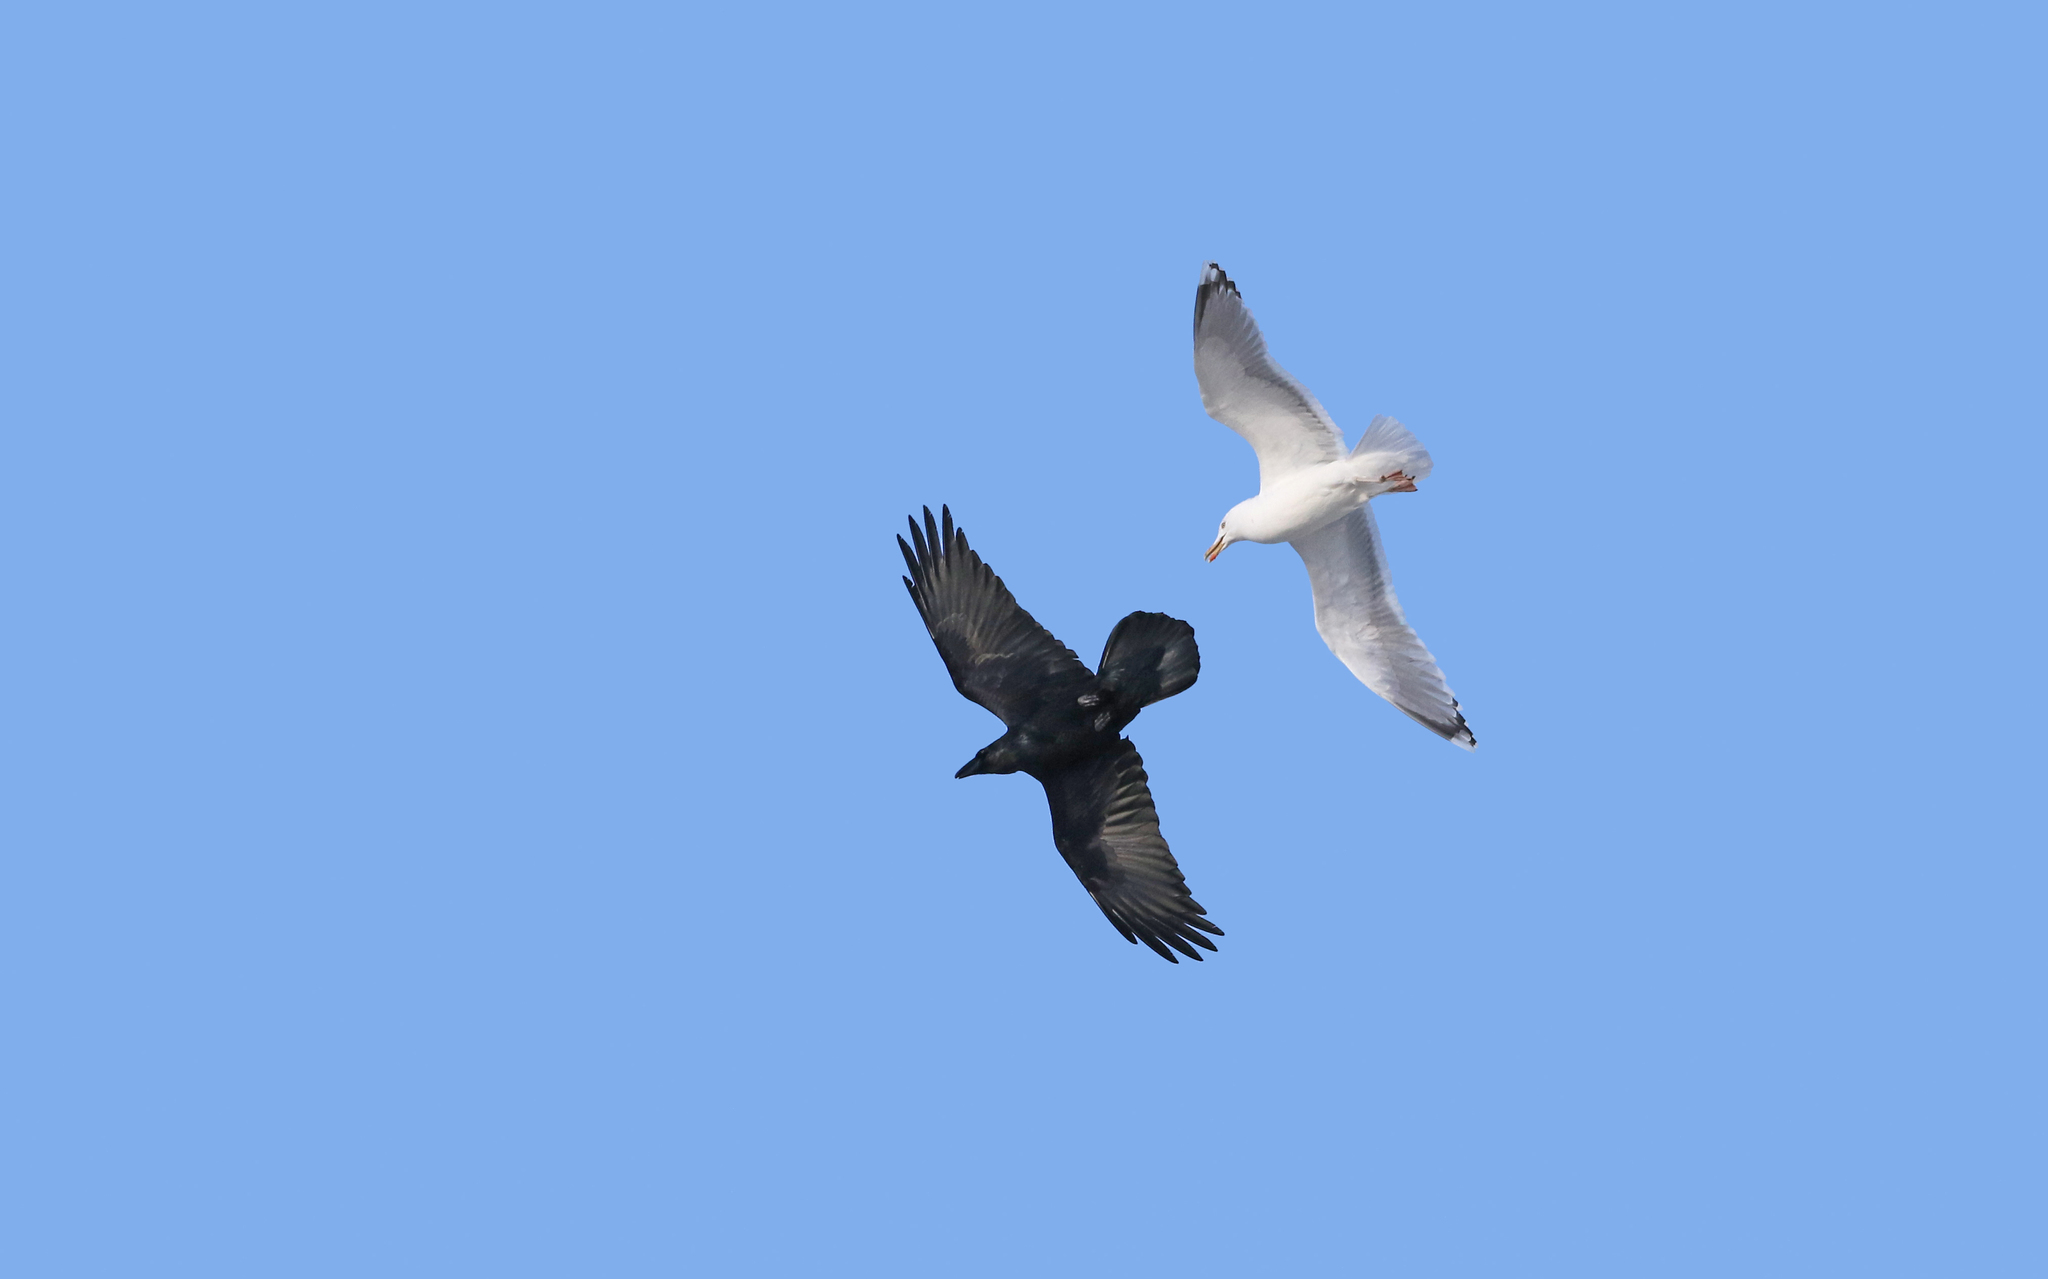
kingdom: Animalia
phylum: Chordata
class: Aves
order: Passeriformes
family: Corvidae
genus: Corvus
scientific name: Corvus corax
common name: Common raven
